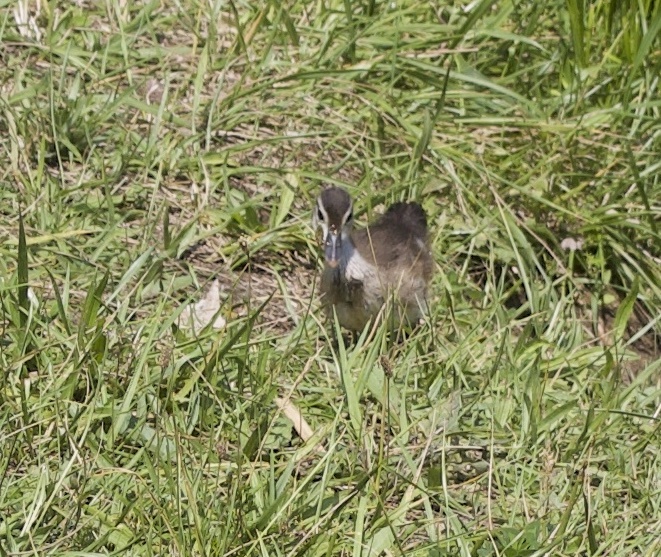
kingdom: Animalia
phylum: Chordata
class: Aves
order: Anseriformes
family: Anatidae
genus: Aix
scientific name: Aix sponsa
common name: Wood duck
